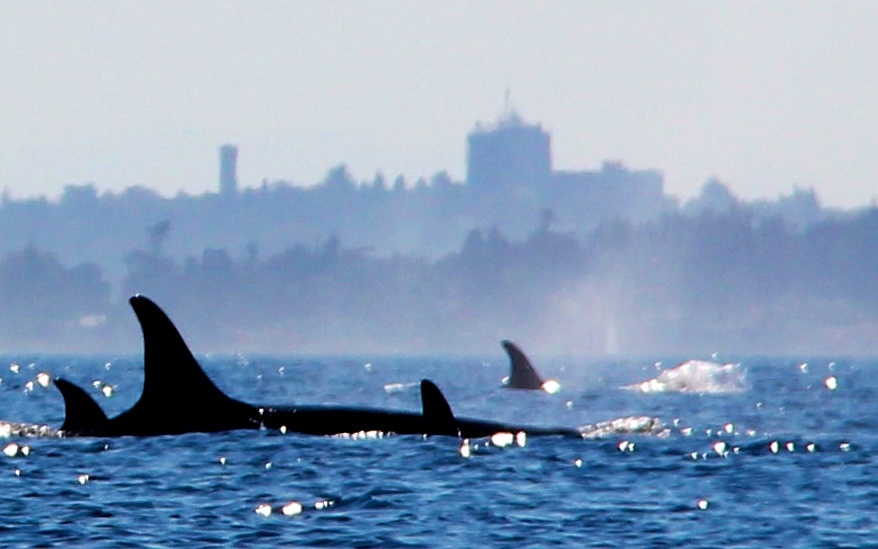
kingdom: Animalia
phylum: Chordata
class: Mammalia
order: Cetacea
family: Delphinidae
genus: Orcinus
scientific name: Orcinus orca
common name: Killer whale
